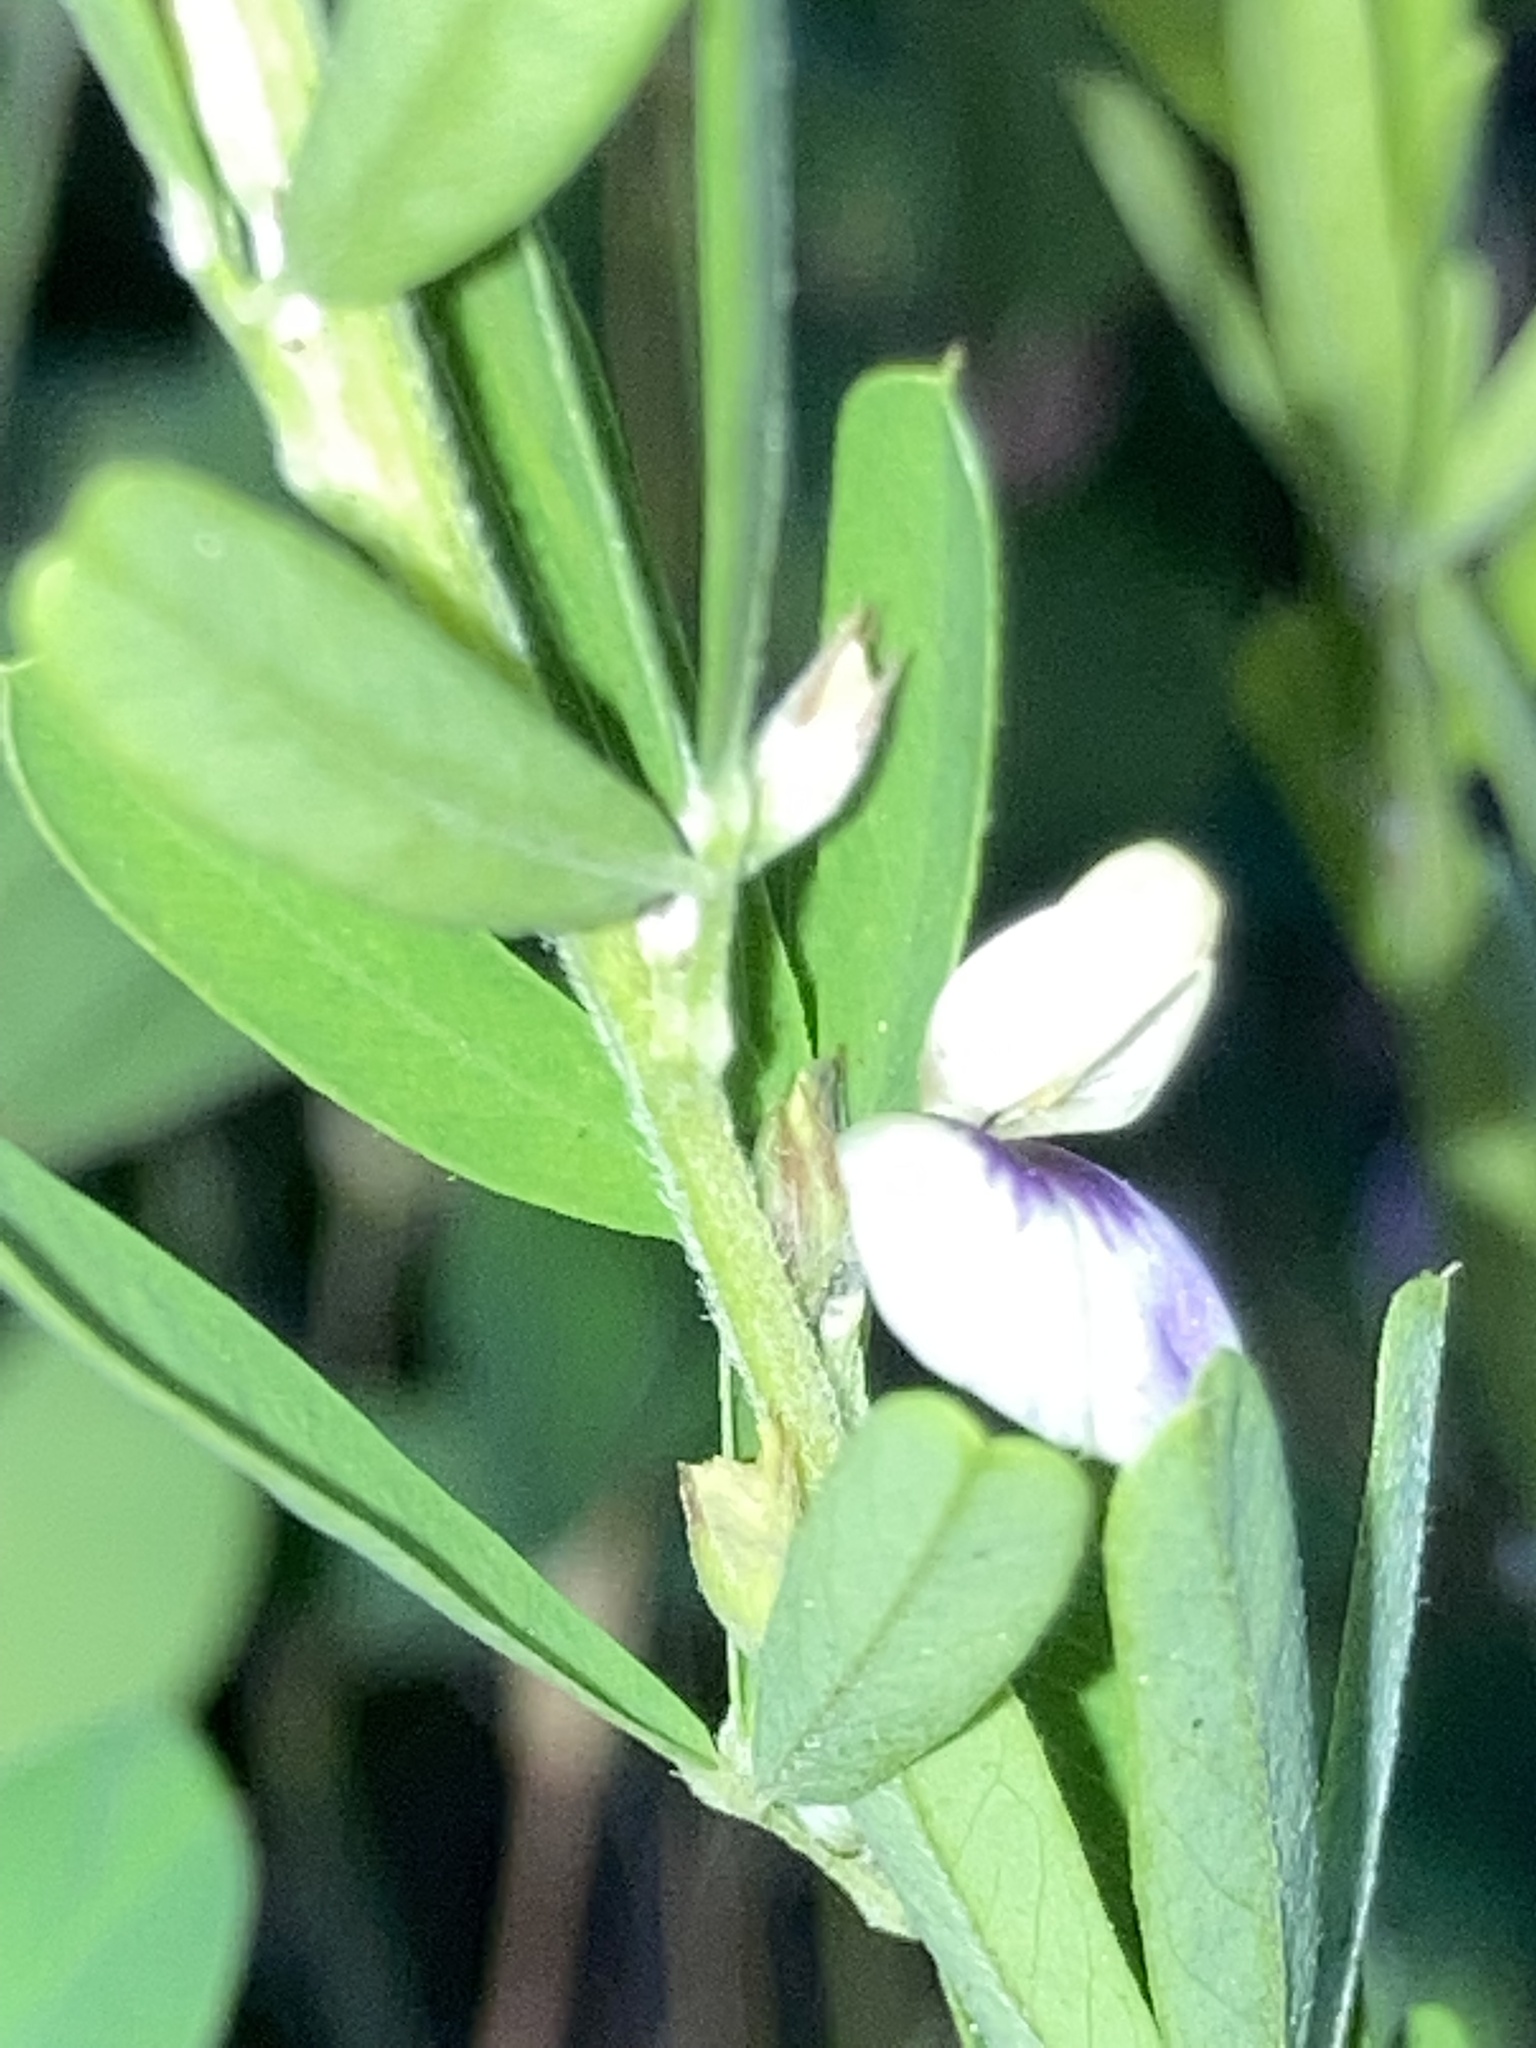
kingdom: Plantae
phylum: Tracheophyta
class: Magnoliopsida
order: Fabales
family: Fabaceae
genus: Lespedeza
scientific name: Lespedeza cuneata
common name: Chinese bush-clover
